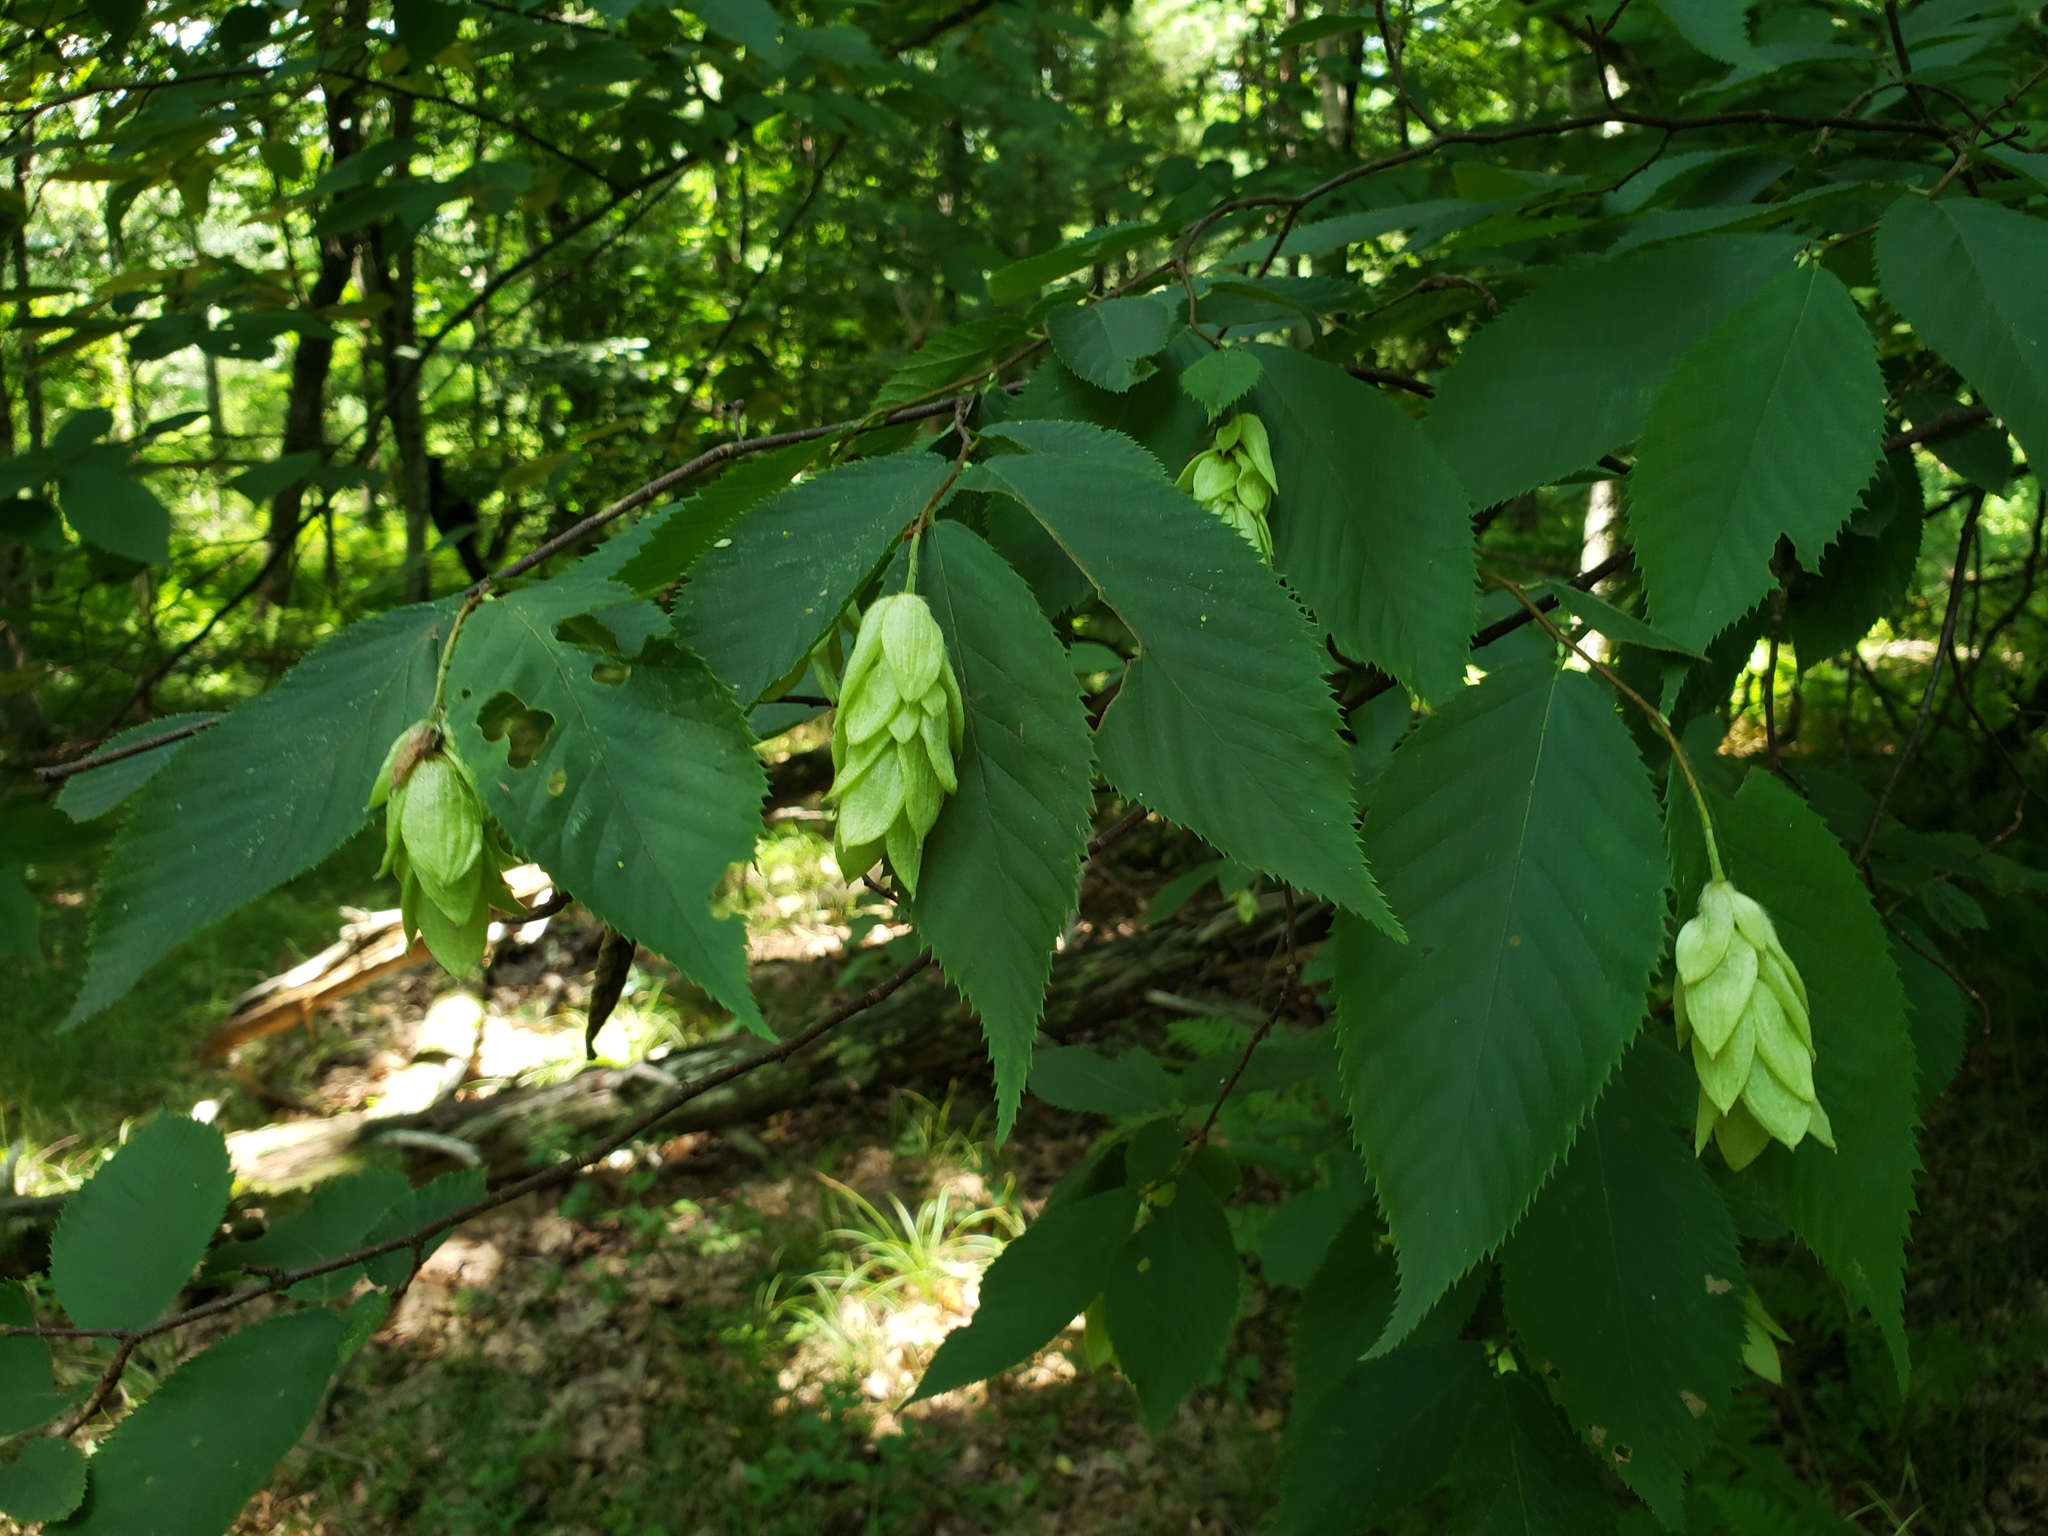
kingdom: Plantae
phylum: Tracheophyta
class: Magnoliopsida
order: Fagales
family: Betulaceae
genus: Ostrya
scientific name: Ostrya virginiana
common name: Ironwood
